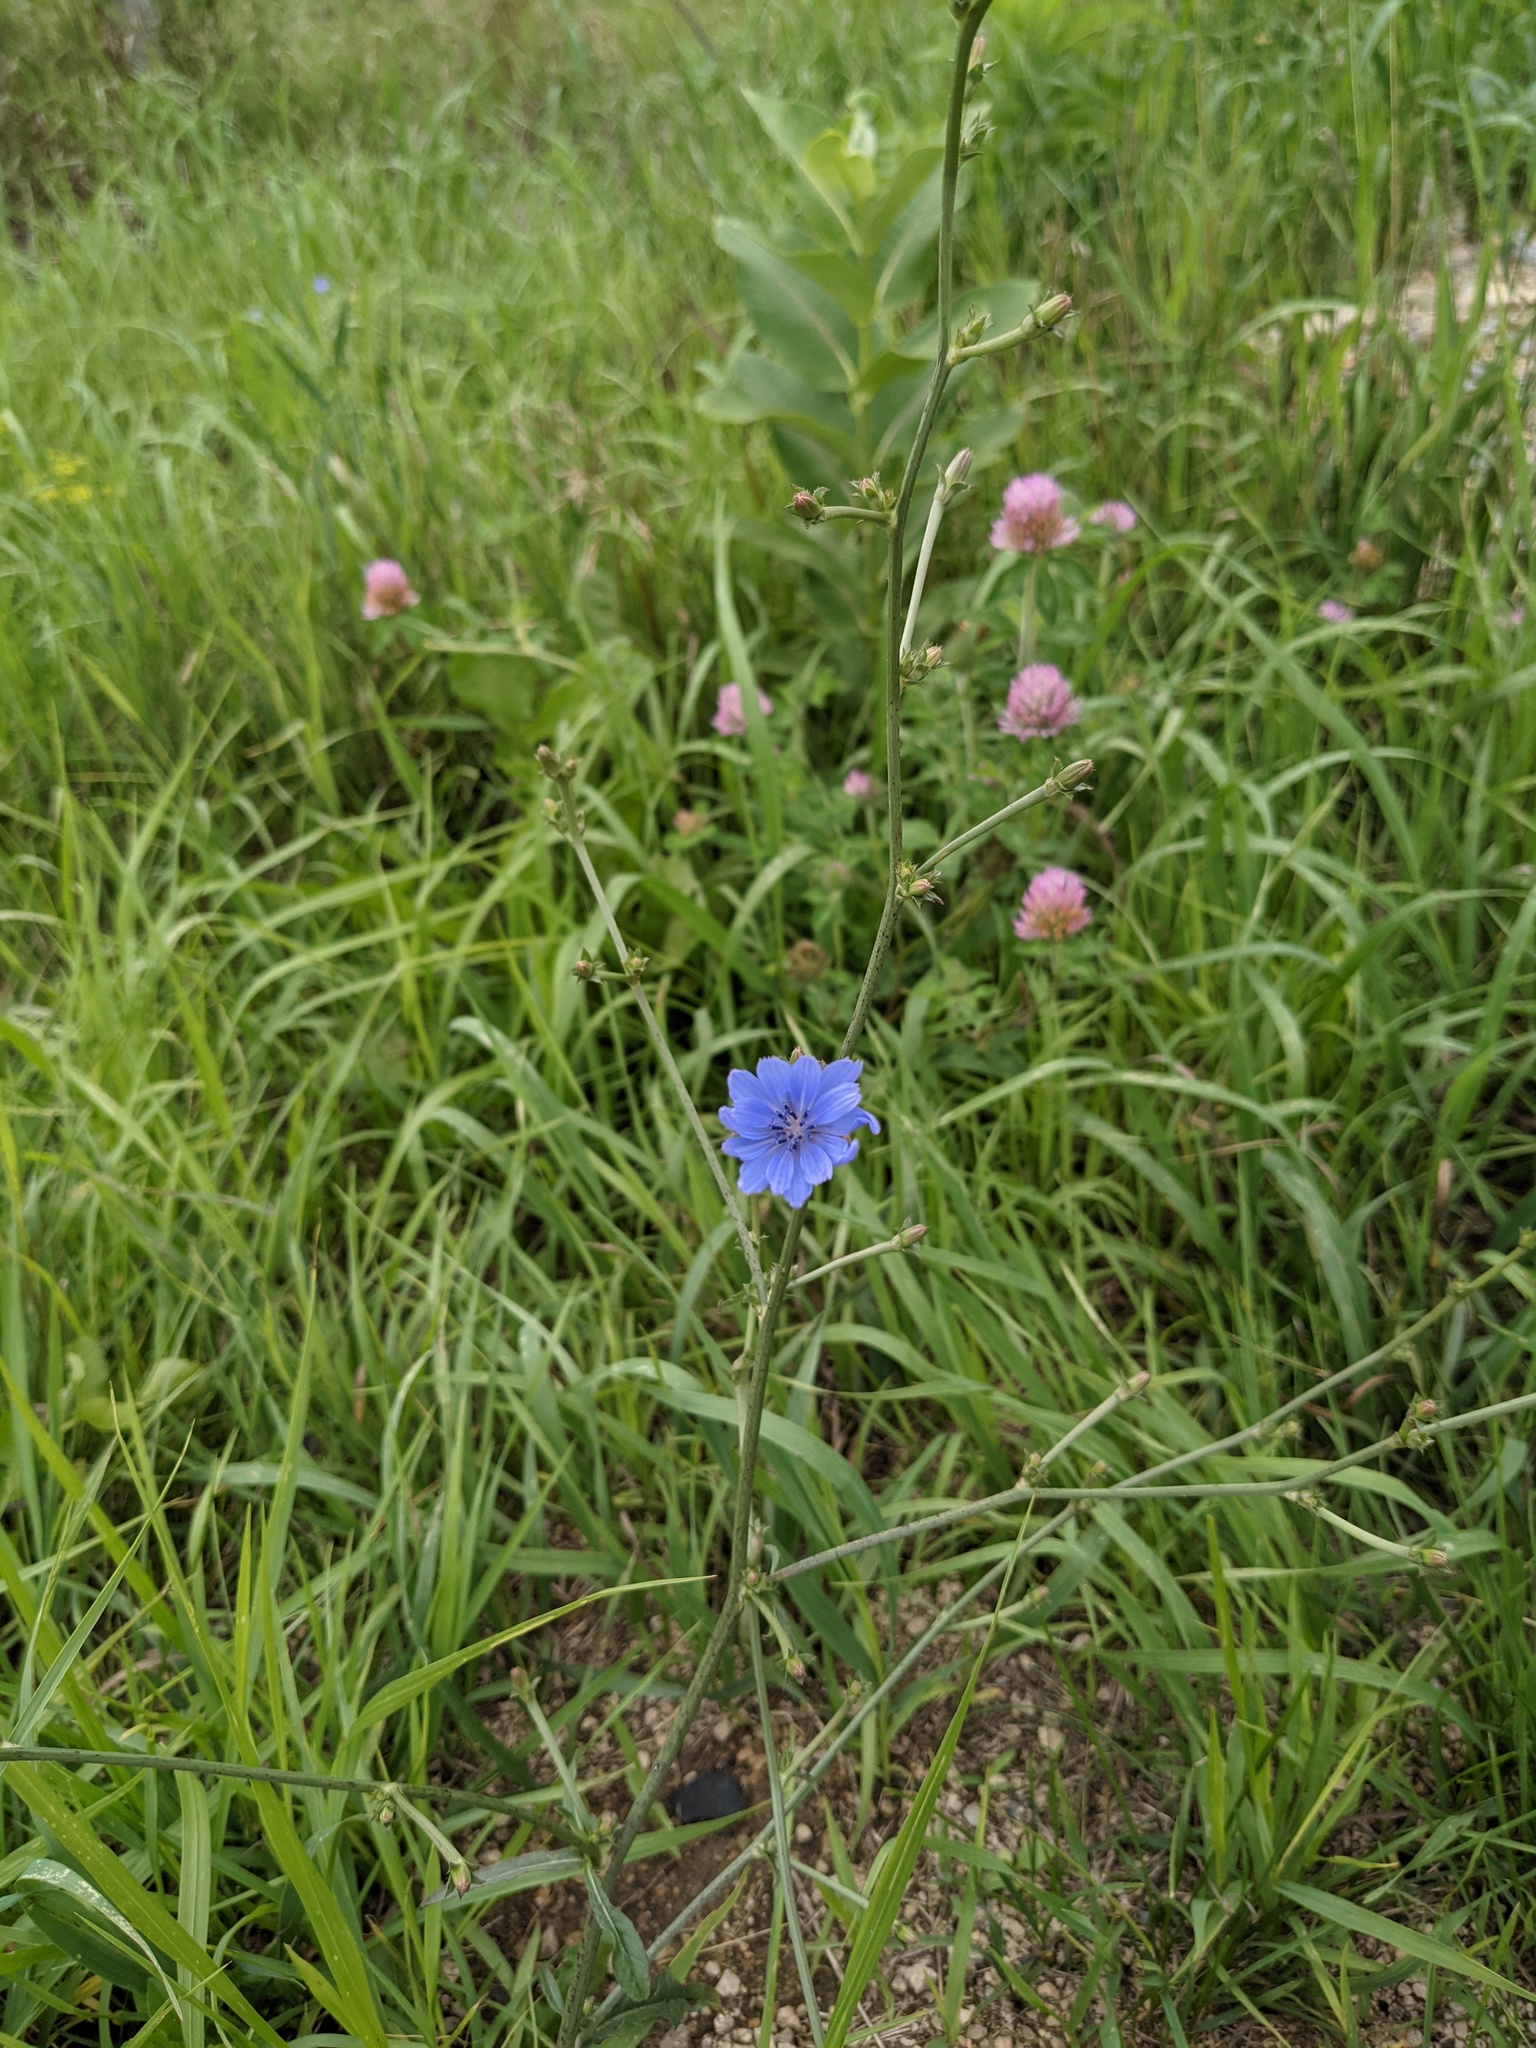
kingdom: Plantae
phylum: Tracheophyta
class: Magnoliopsida
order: Asterales
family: Asteraceae
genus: Cichorium
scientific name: Cichorium intybus
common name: Chicory
